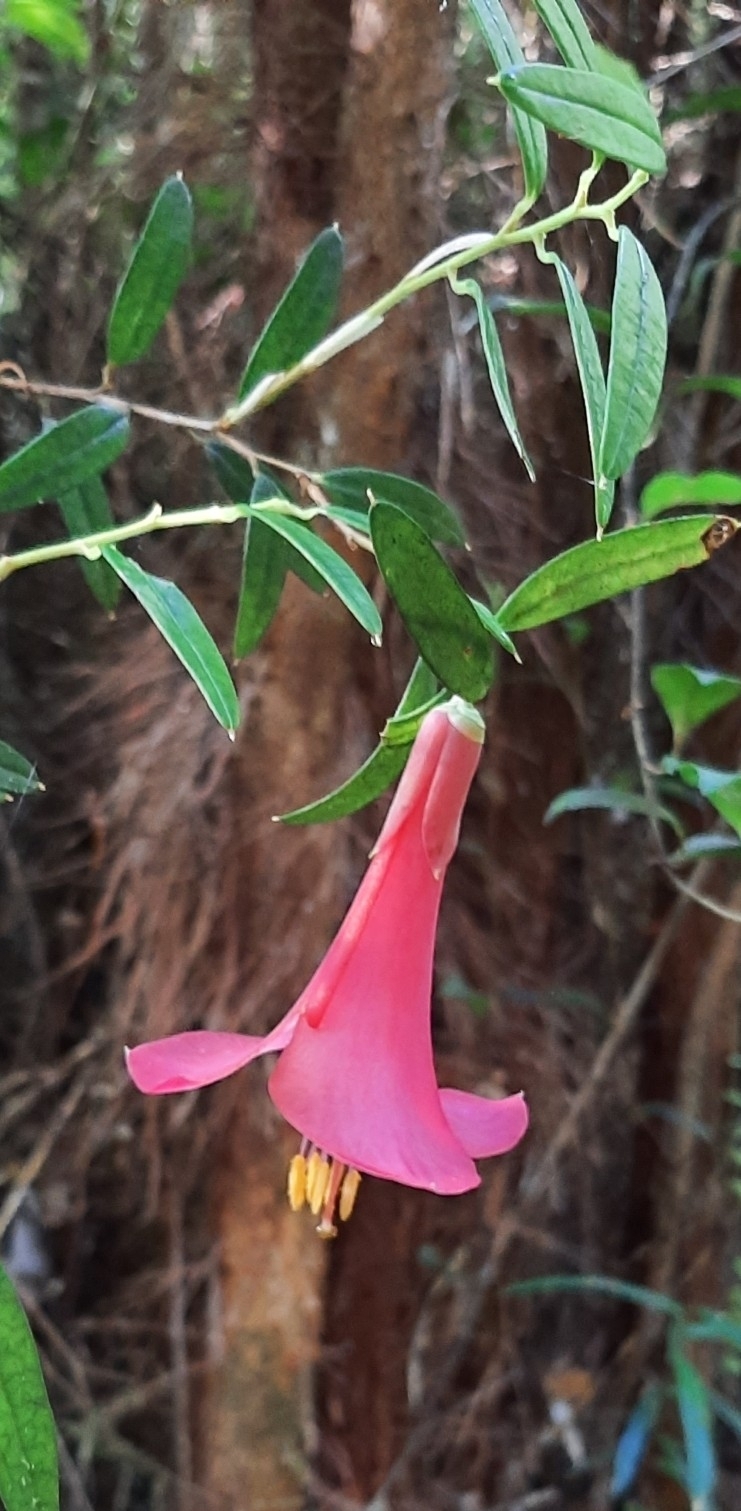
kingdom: Plantae
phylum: Tracheophyta
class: Liliopsida
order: Liliales
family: Philesiaceae
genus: Philesia
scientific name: Philesia magellanica
